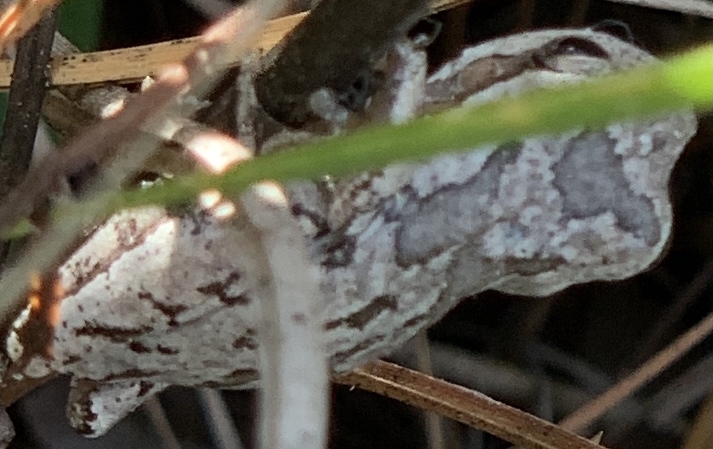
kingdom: Animalia
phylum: Chordata
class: Amphibia
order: Anura
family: Hylidae
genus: Hyla
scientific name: Hyla femoralis
